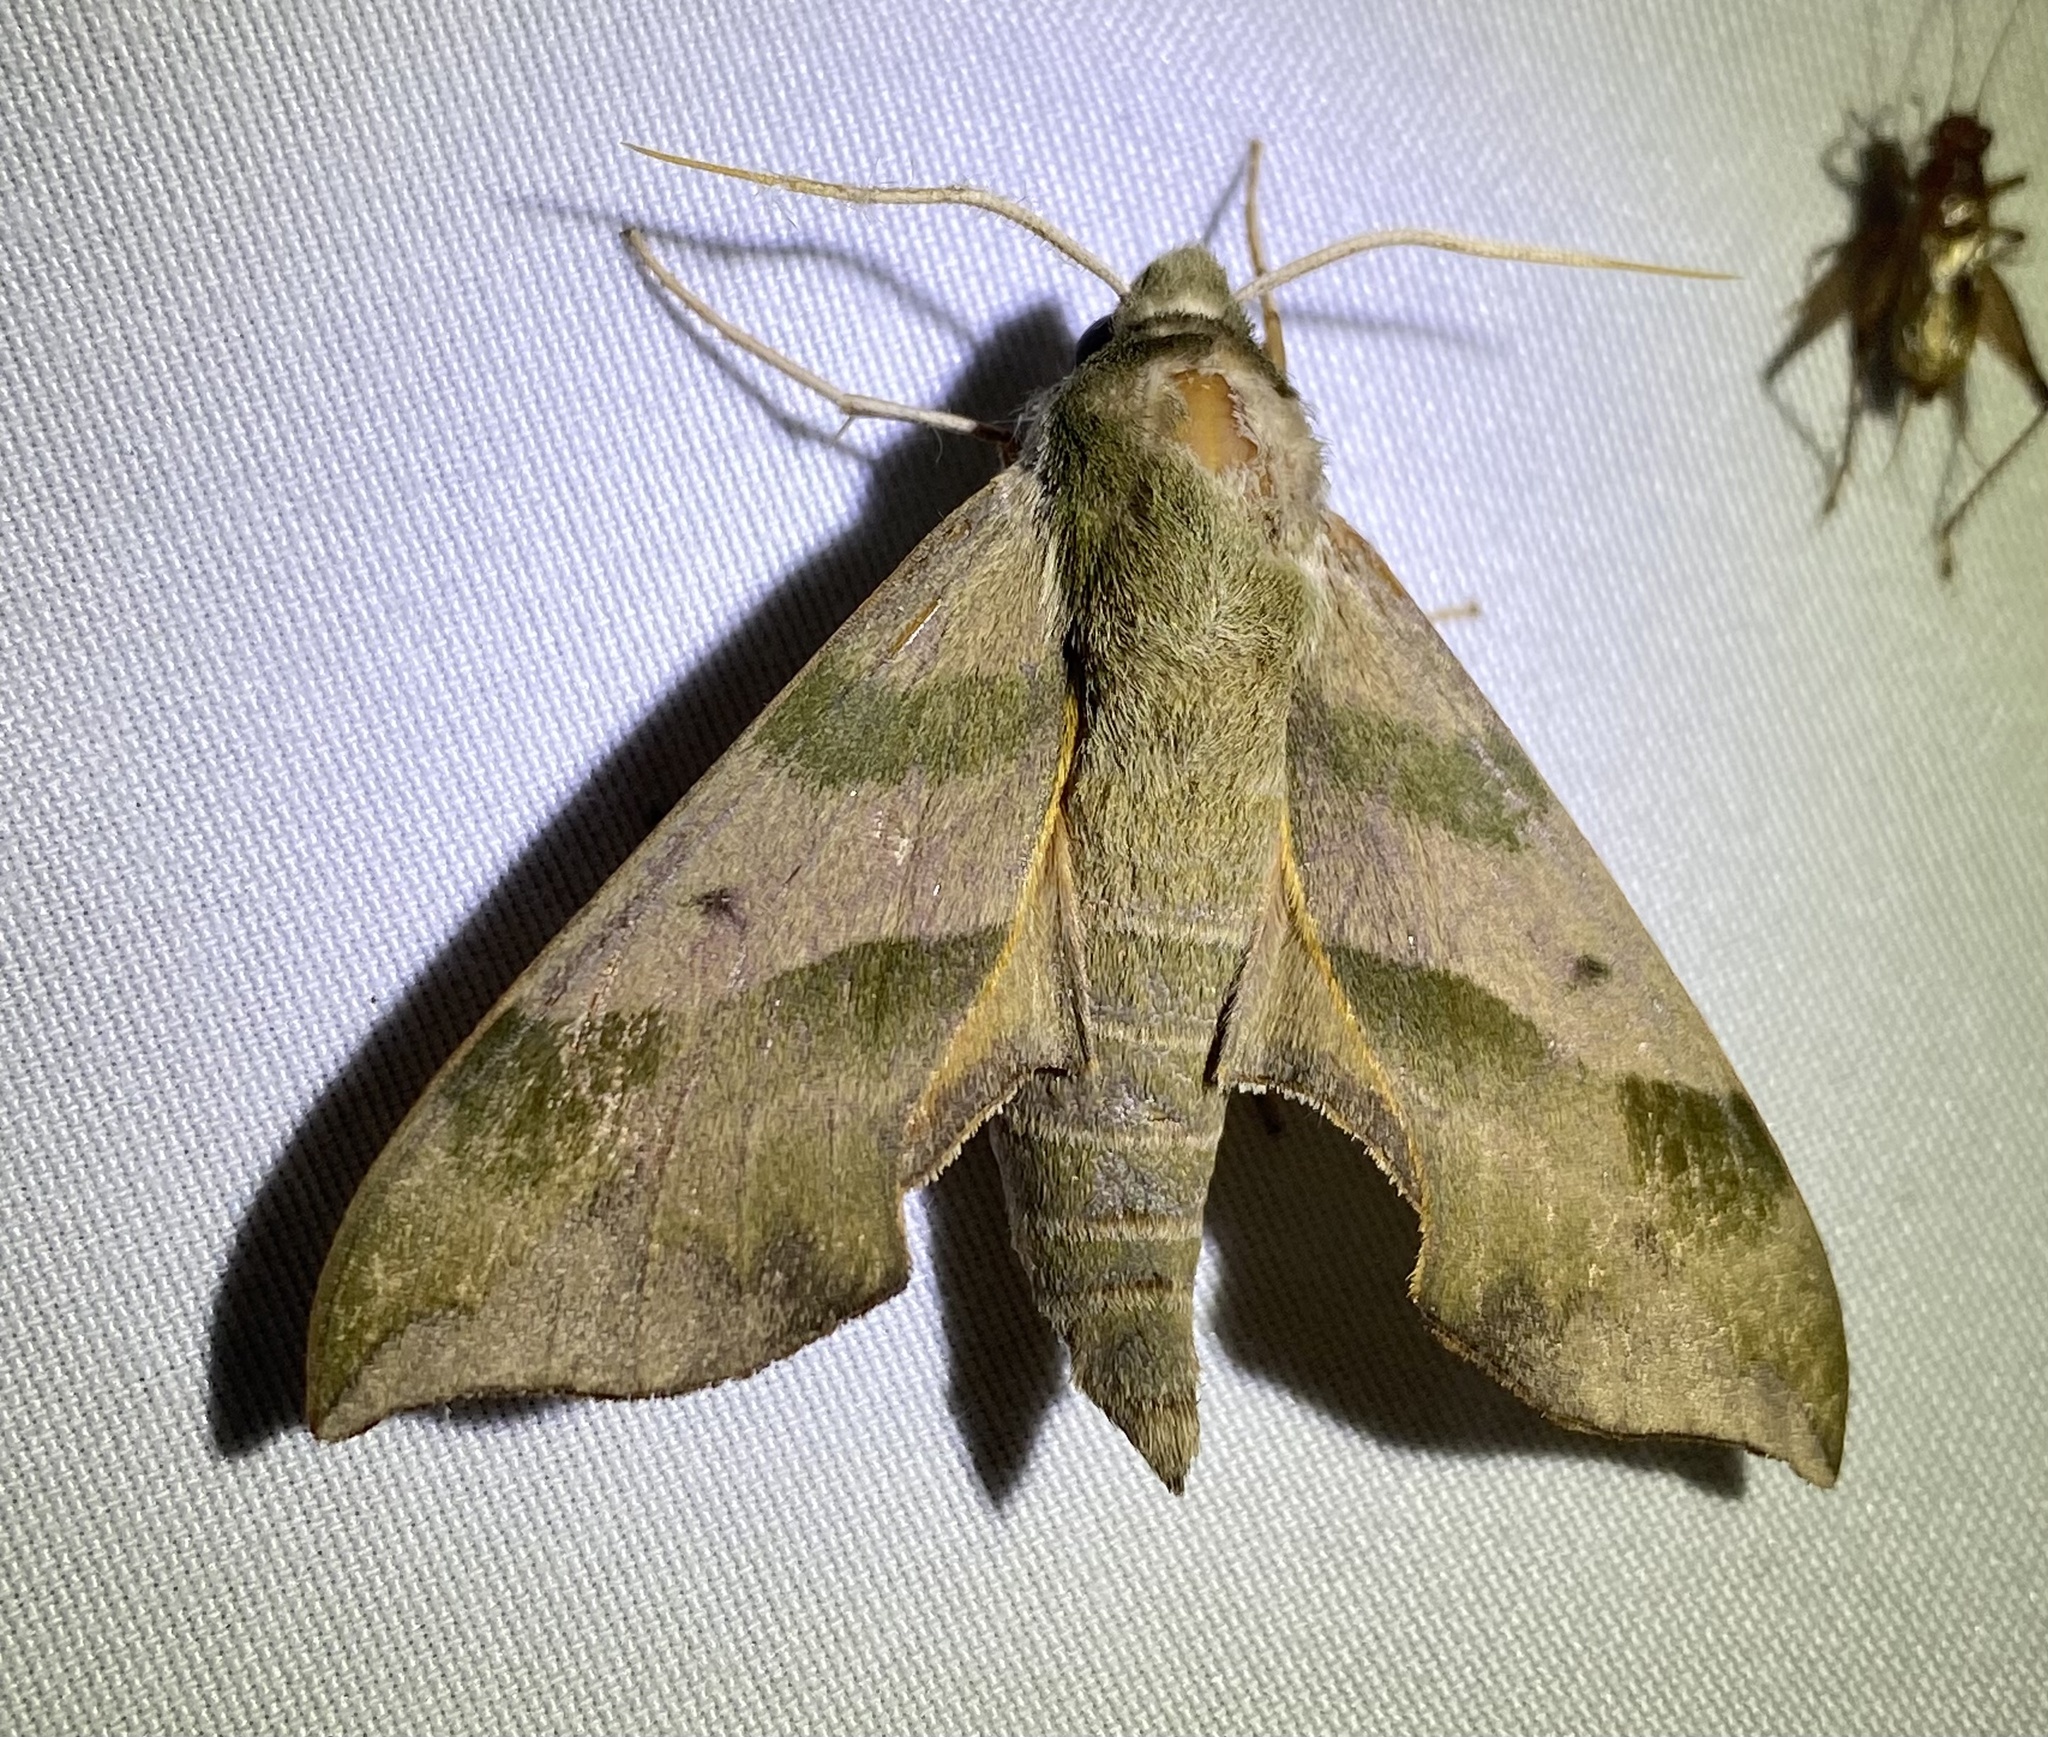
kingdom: Animalia
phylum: Arthropoda
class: Insecta
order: Lepidoptera
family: Sphingidae
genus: Darapsa
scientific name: Darapsa myron
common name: Hog sphinx
